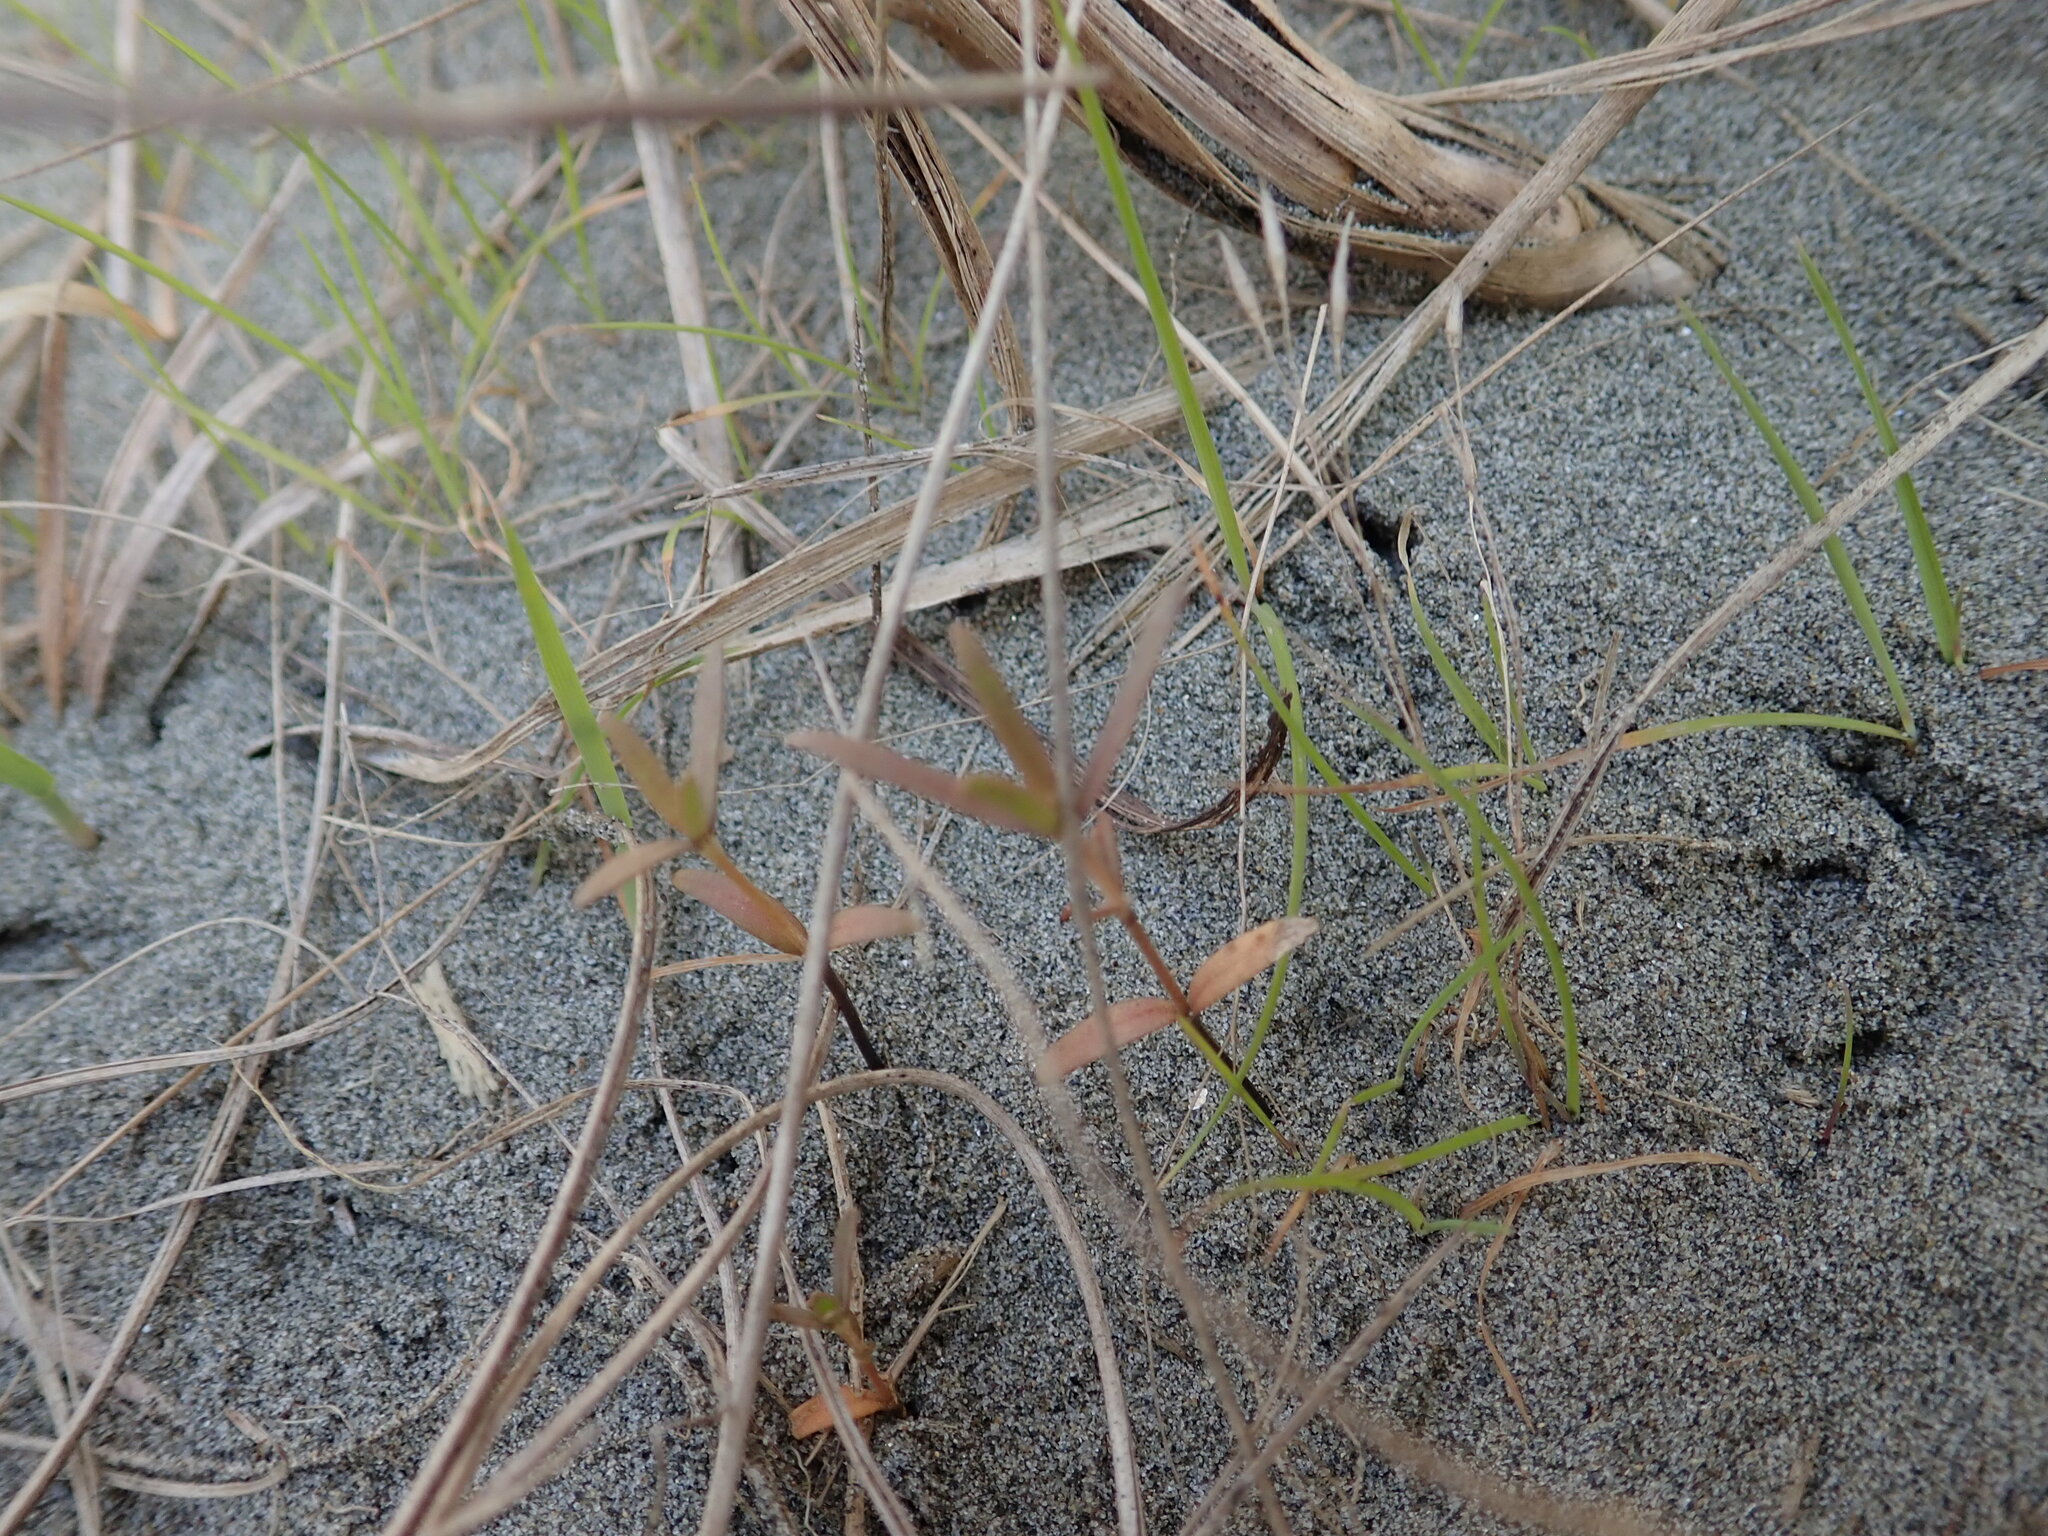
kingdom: Plantae
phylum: Tracheophyta
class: Magnoliopsida
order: Gentianales
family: Rubiaceae
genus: Coprosma
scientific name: Coprosma acerosa
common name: Sand coprosma
